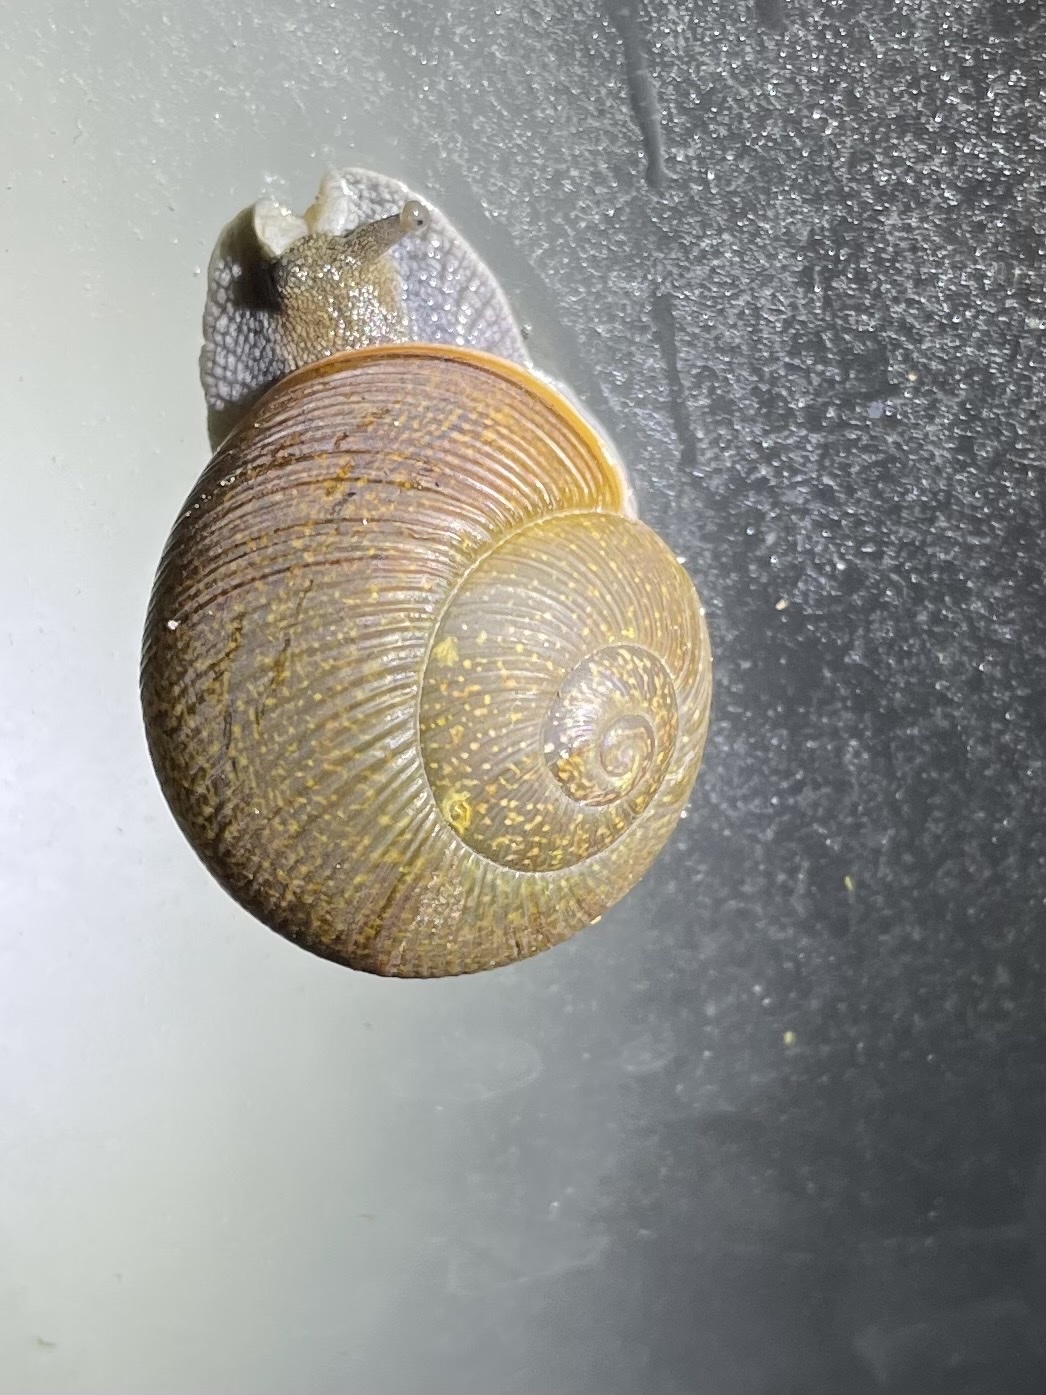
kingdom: Animalia
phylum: Mollusca
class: Gastropoda
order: Stylommatophora
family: Zachrysiidae
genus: Zachrysia
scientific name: Zachrysia provisoria
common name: Garden zachrysia
